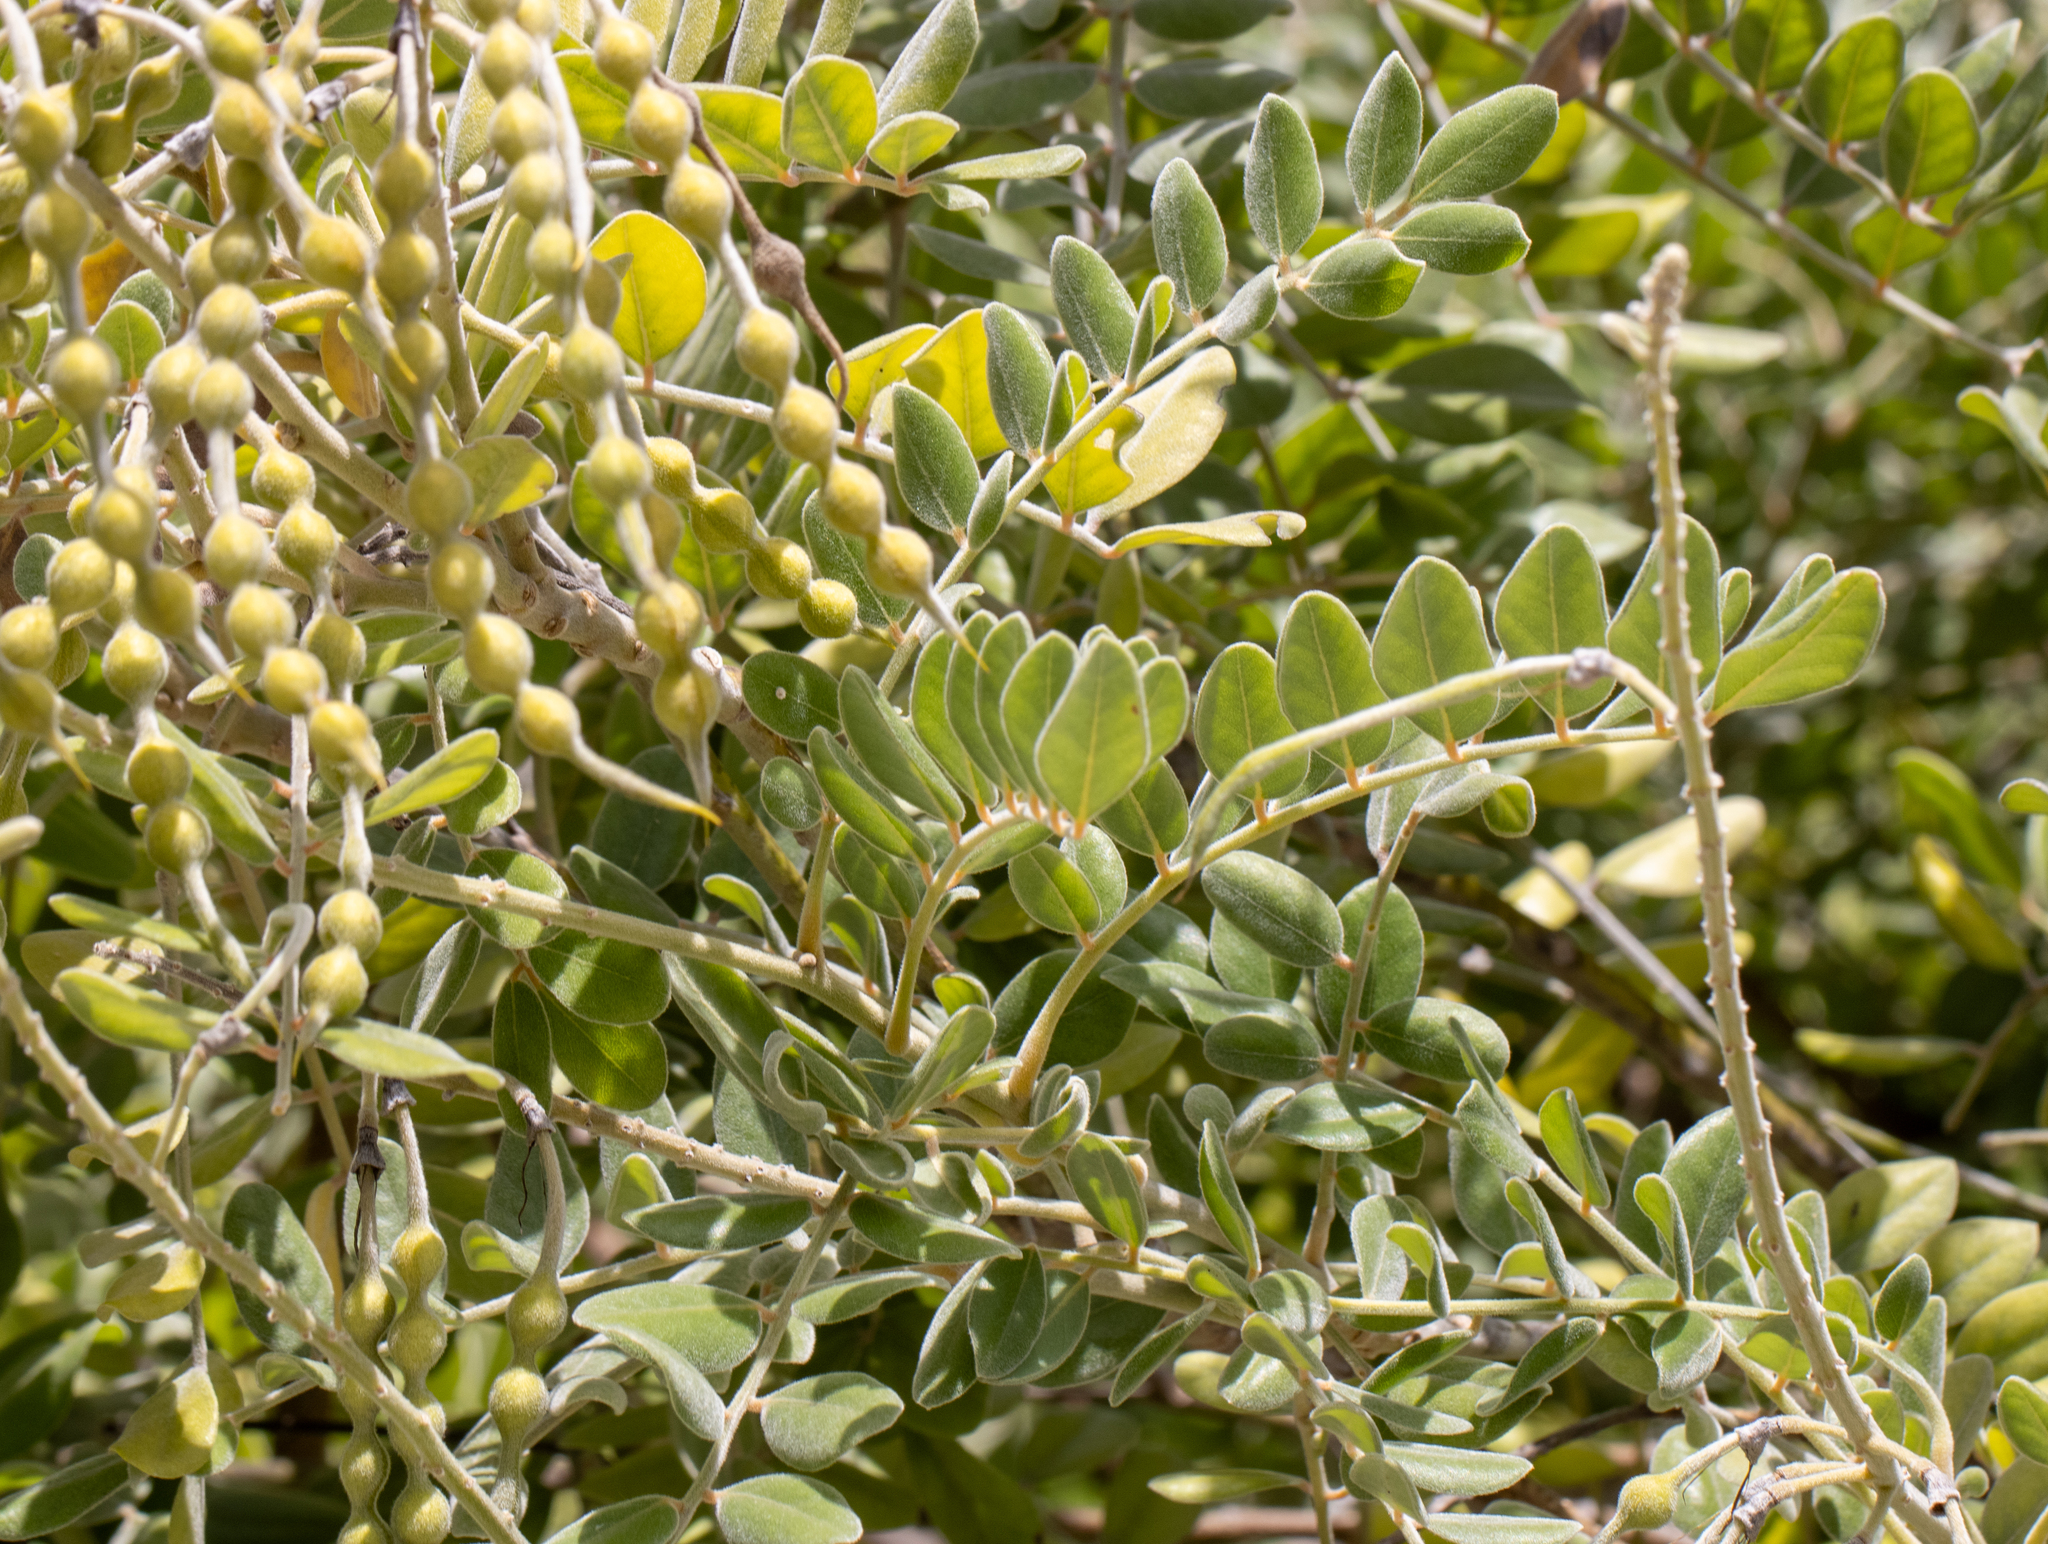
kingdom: Plantae
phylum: Tracheophyta
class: Magnoliopsida
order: Fabales
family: Fabaceae
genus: Sophora
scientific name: Sophora tomentosa
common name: Yellow necklacepod
